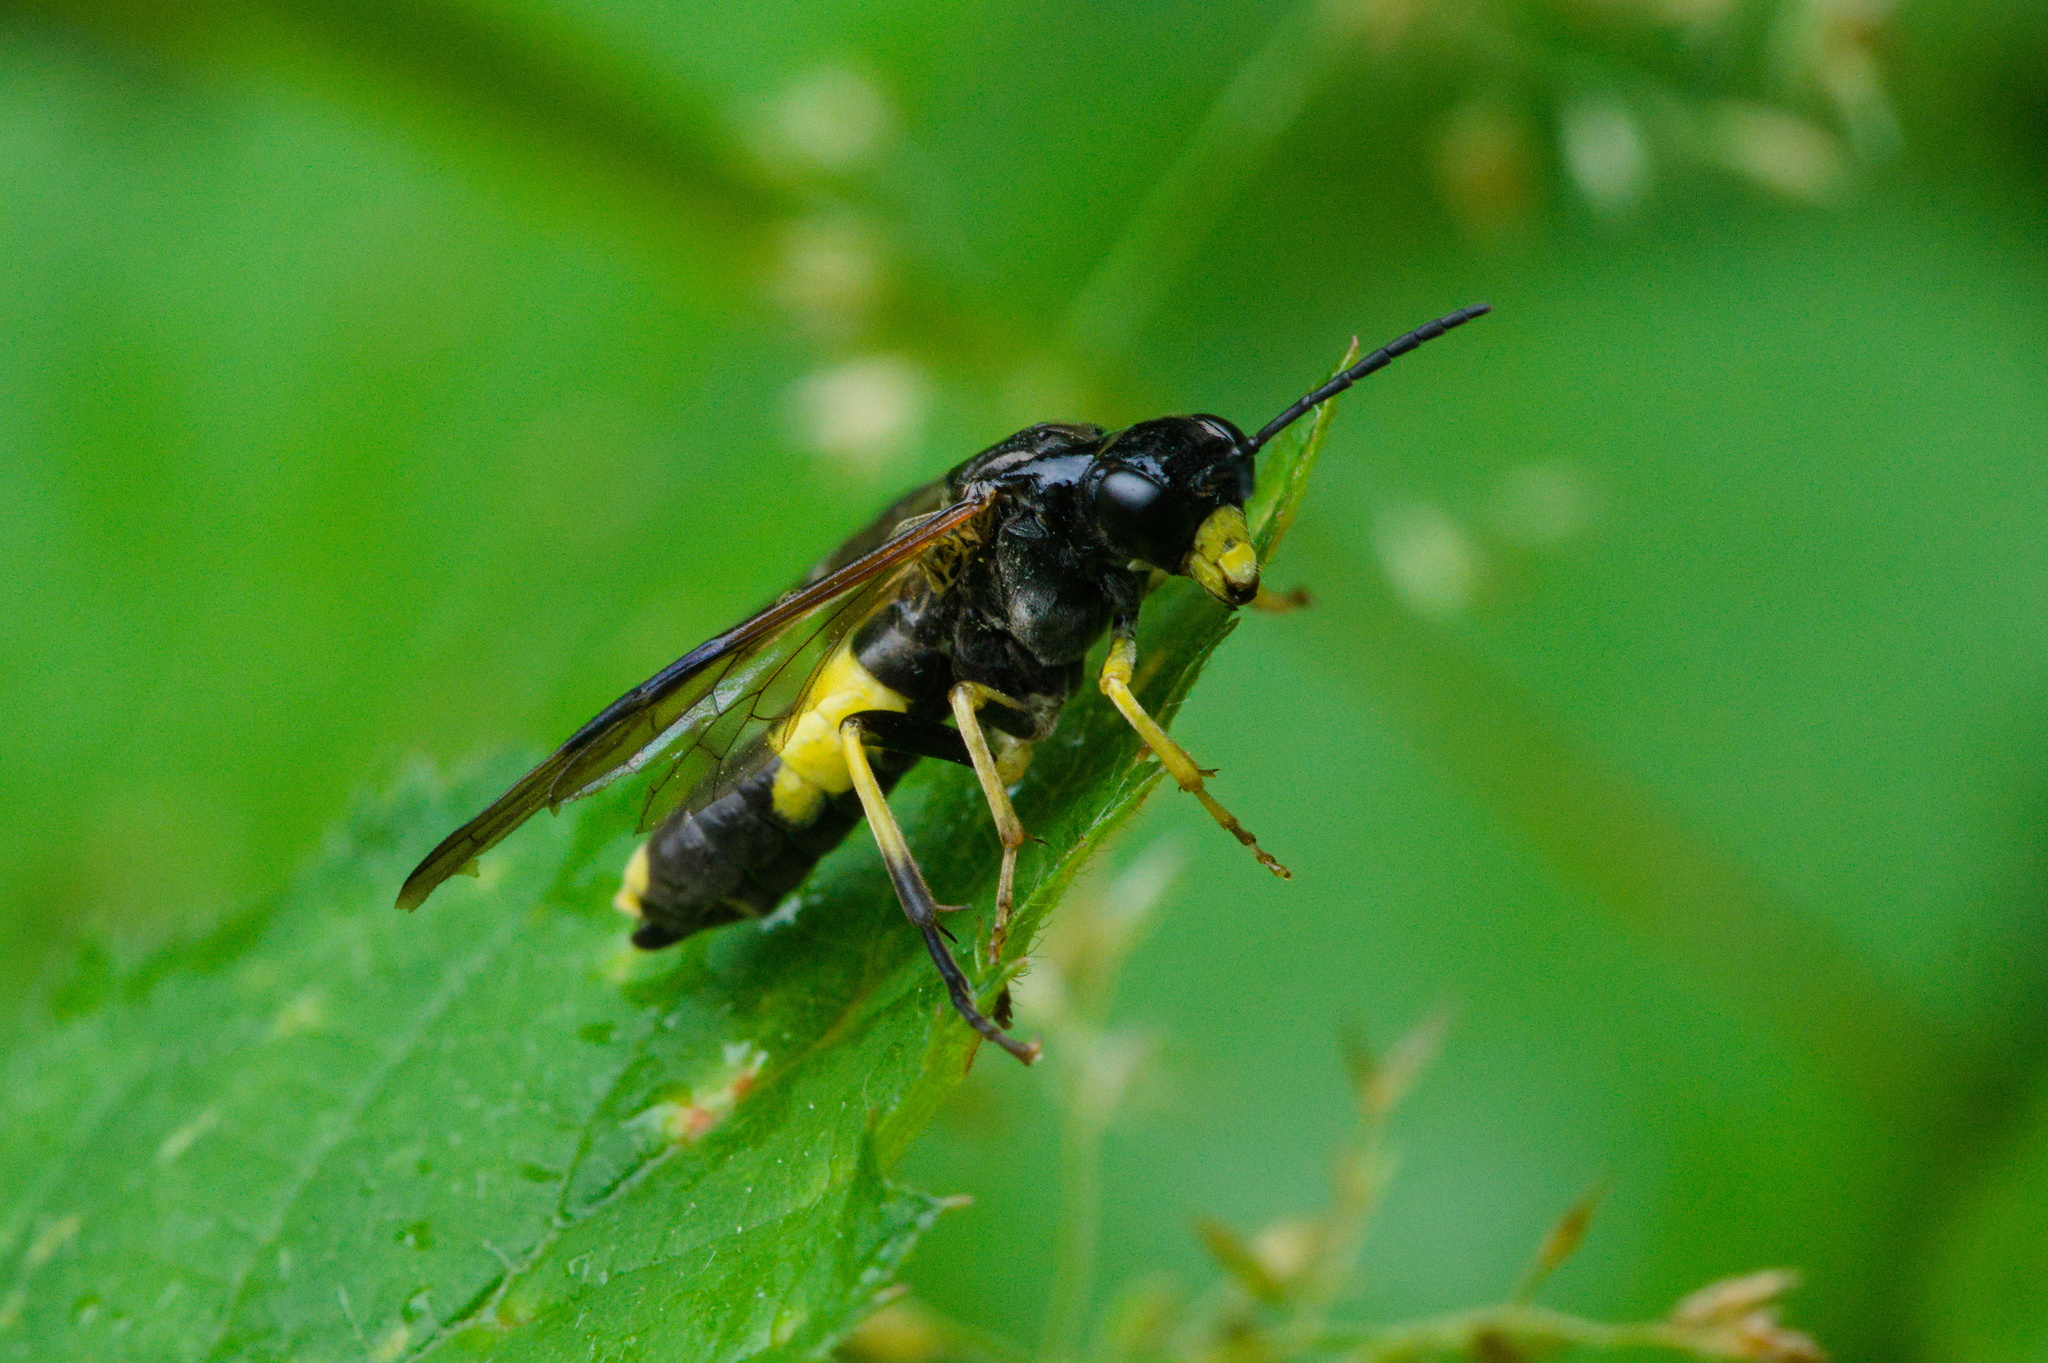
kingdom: Animalia
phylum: Arthropoda
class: Insecta
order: Hymenoptera
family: Tenthredinidae
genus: Tenthredo
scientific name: Tenthredo temula
